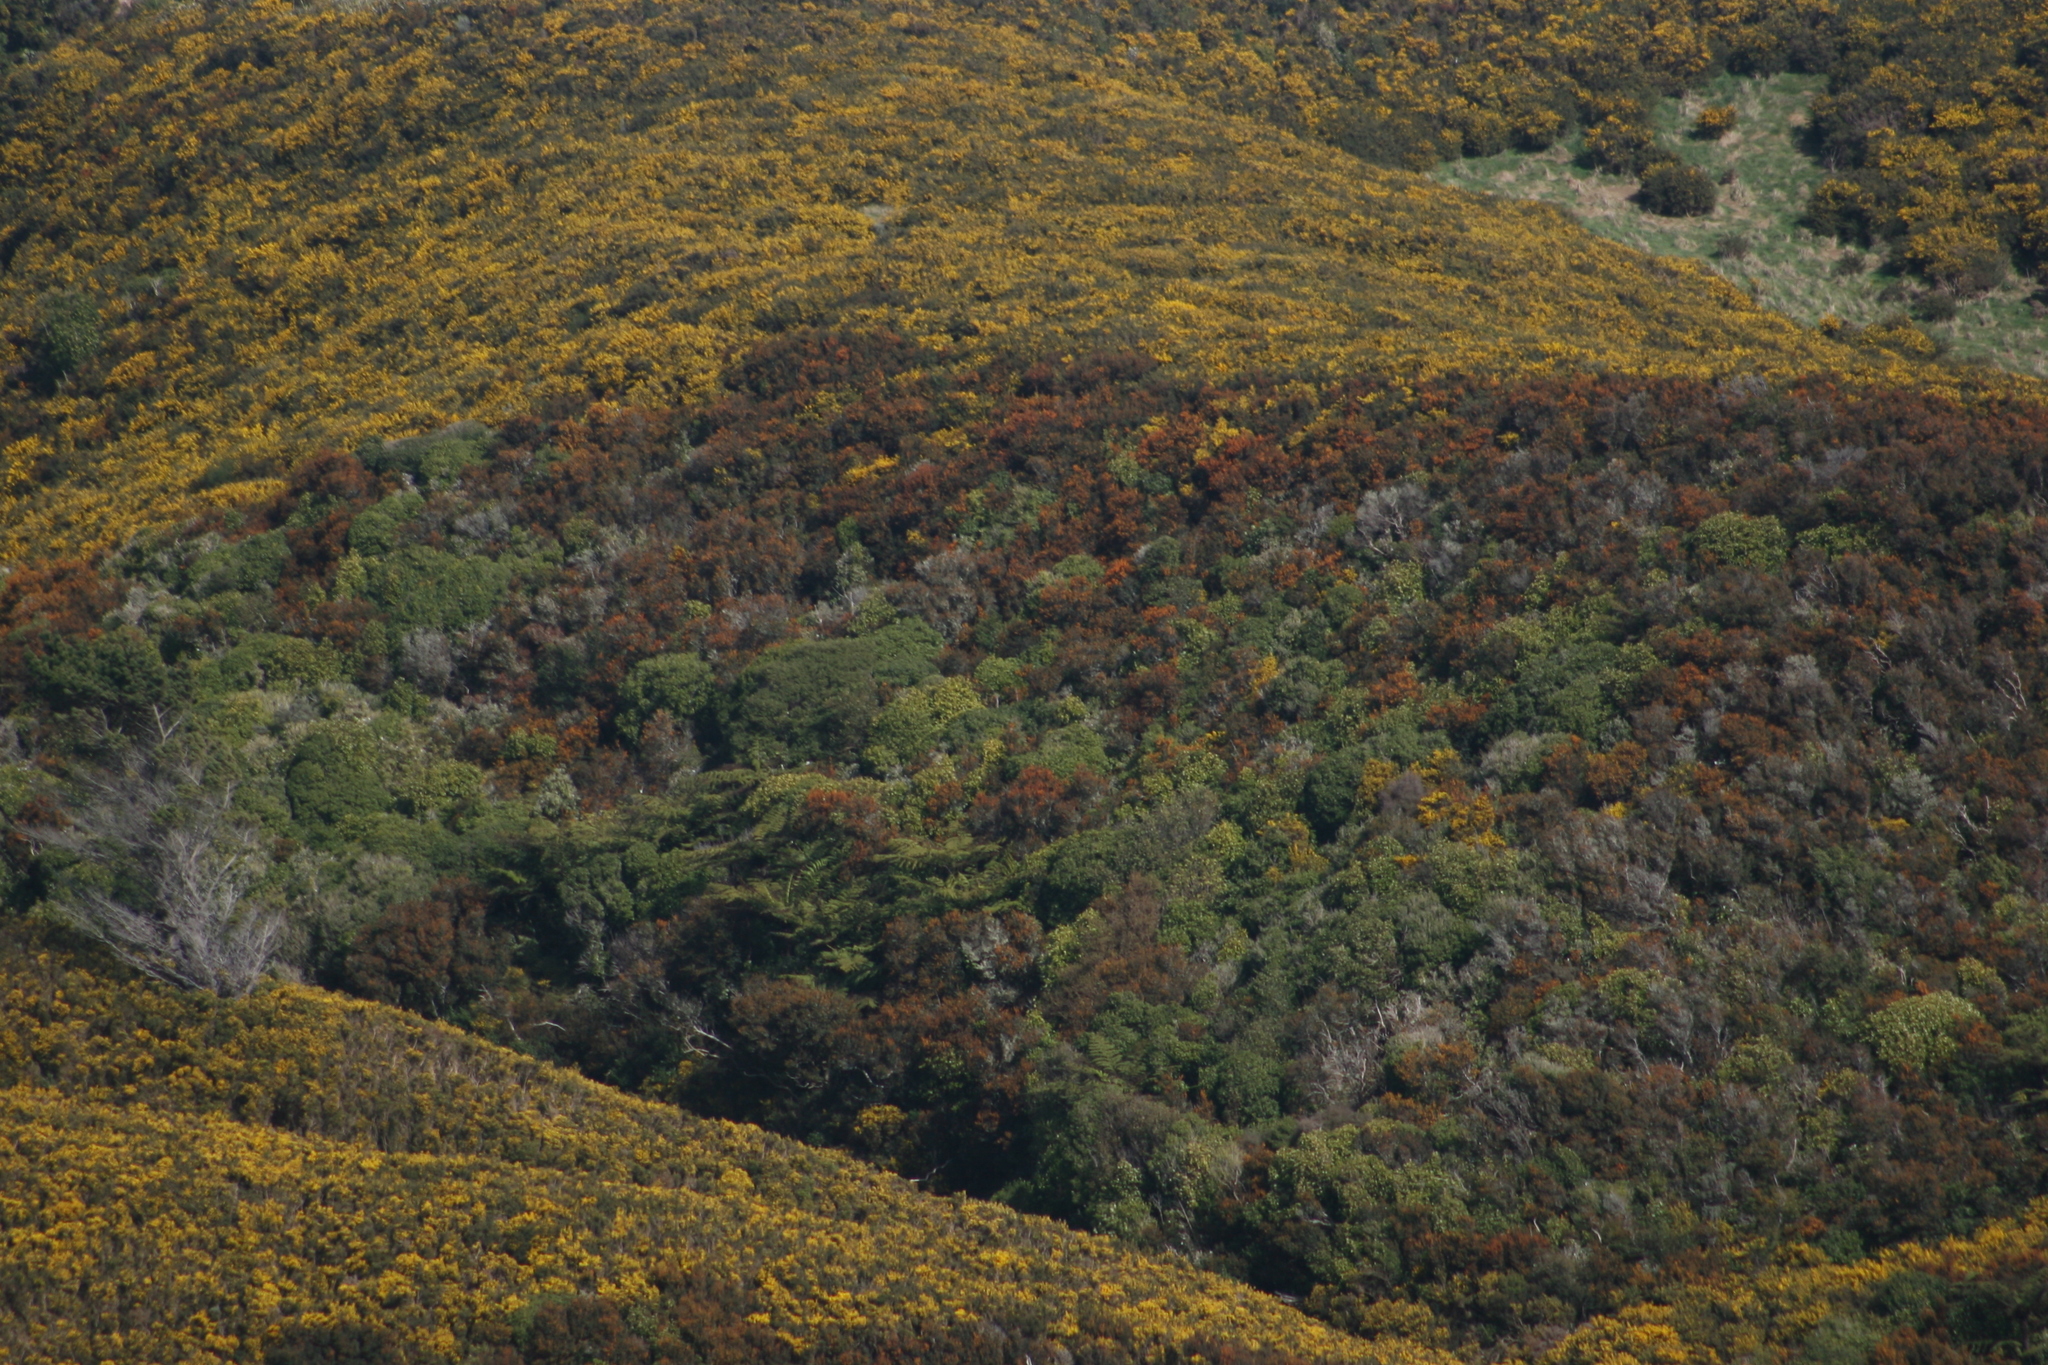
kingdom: Plantae
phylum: Tracheophyta
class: Magnoliopsida
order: Ranunculales
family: Berberidaceae
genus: Berberis
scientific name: Berberis darwinii
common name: Darwin's barberry
